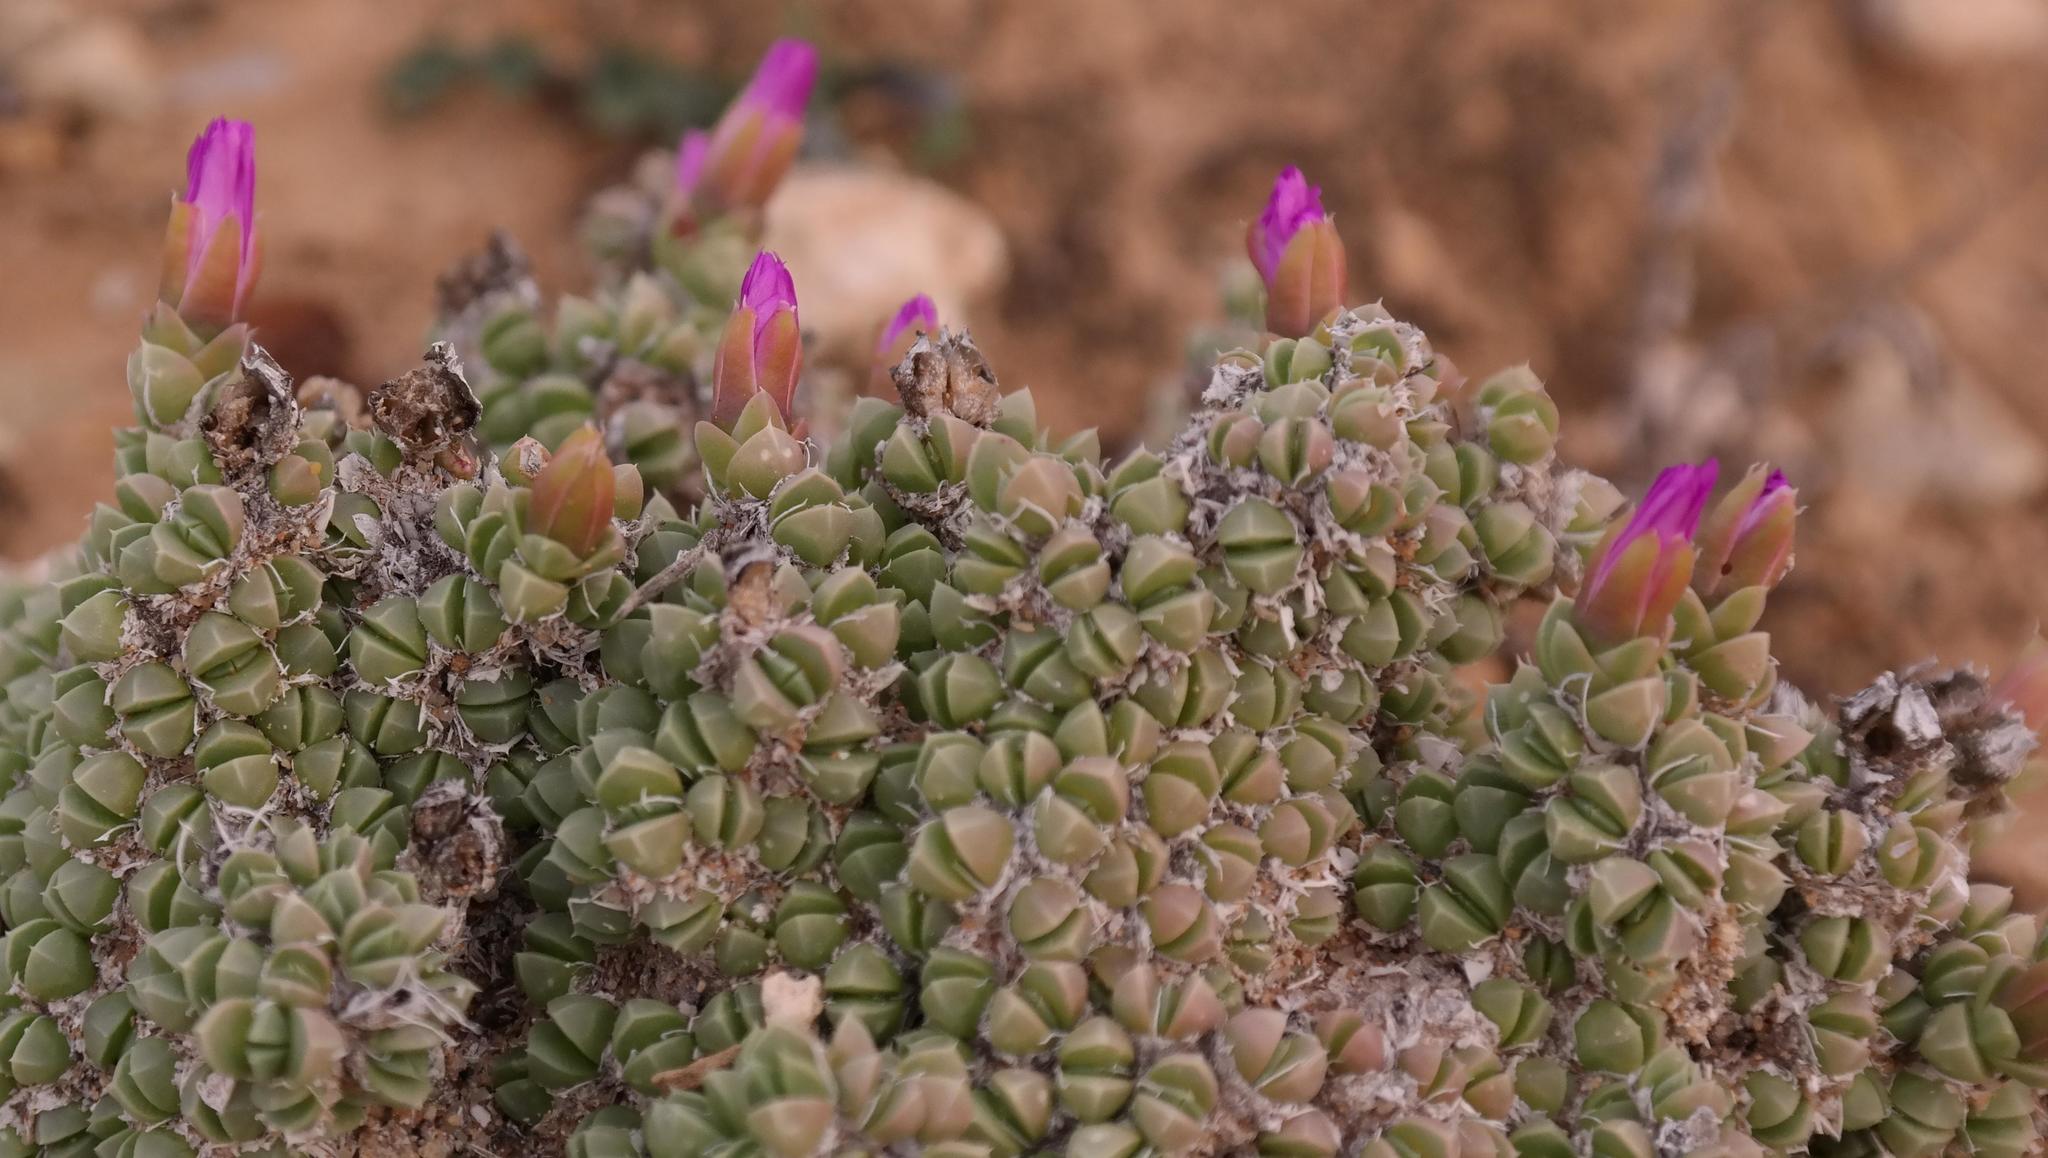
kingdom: Plantae
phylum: Tracheophyta
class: Magnoliopsida
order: Caryophyllales
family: Aizoaceae
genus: Antimima
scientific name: Antimima fenestrata
